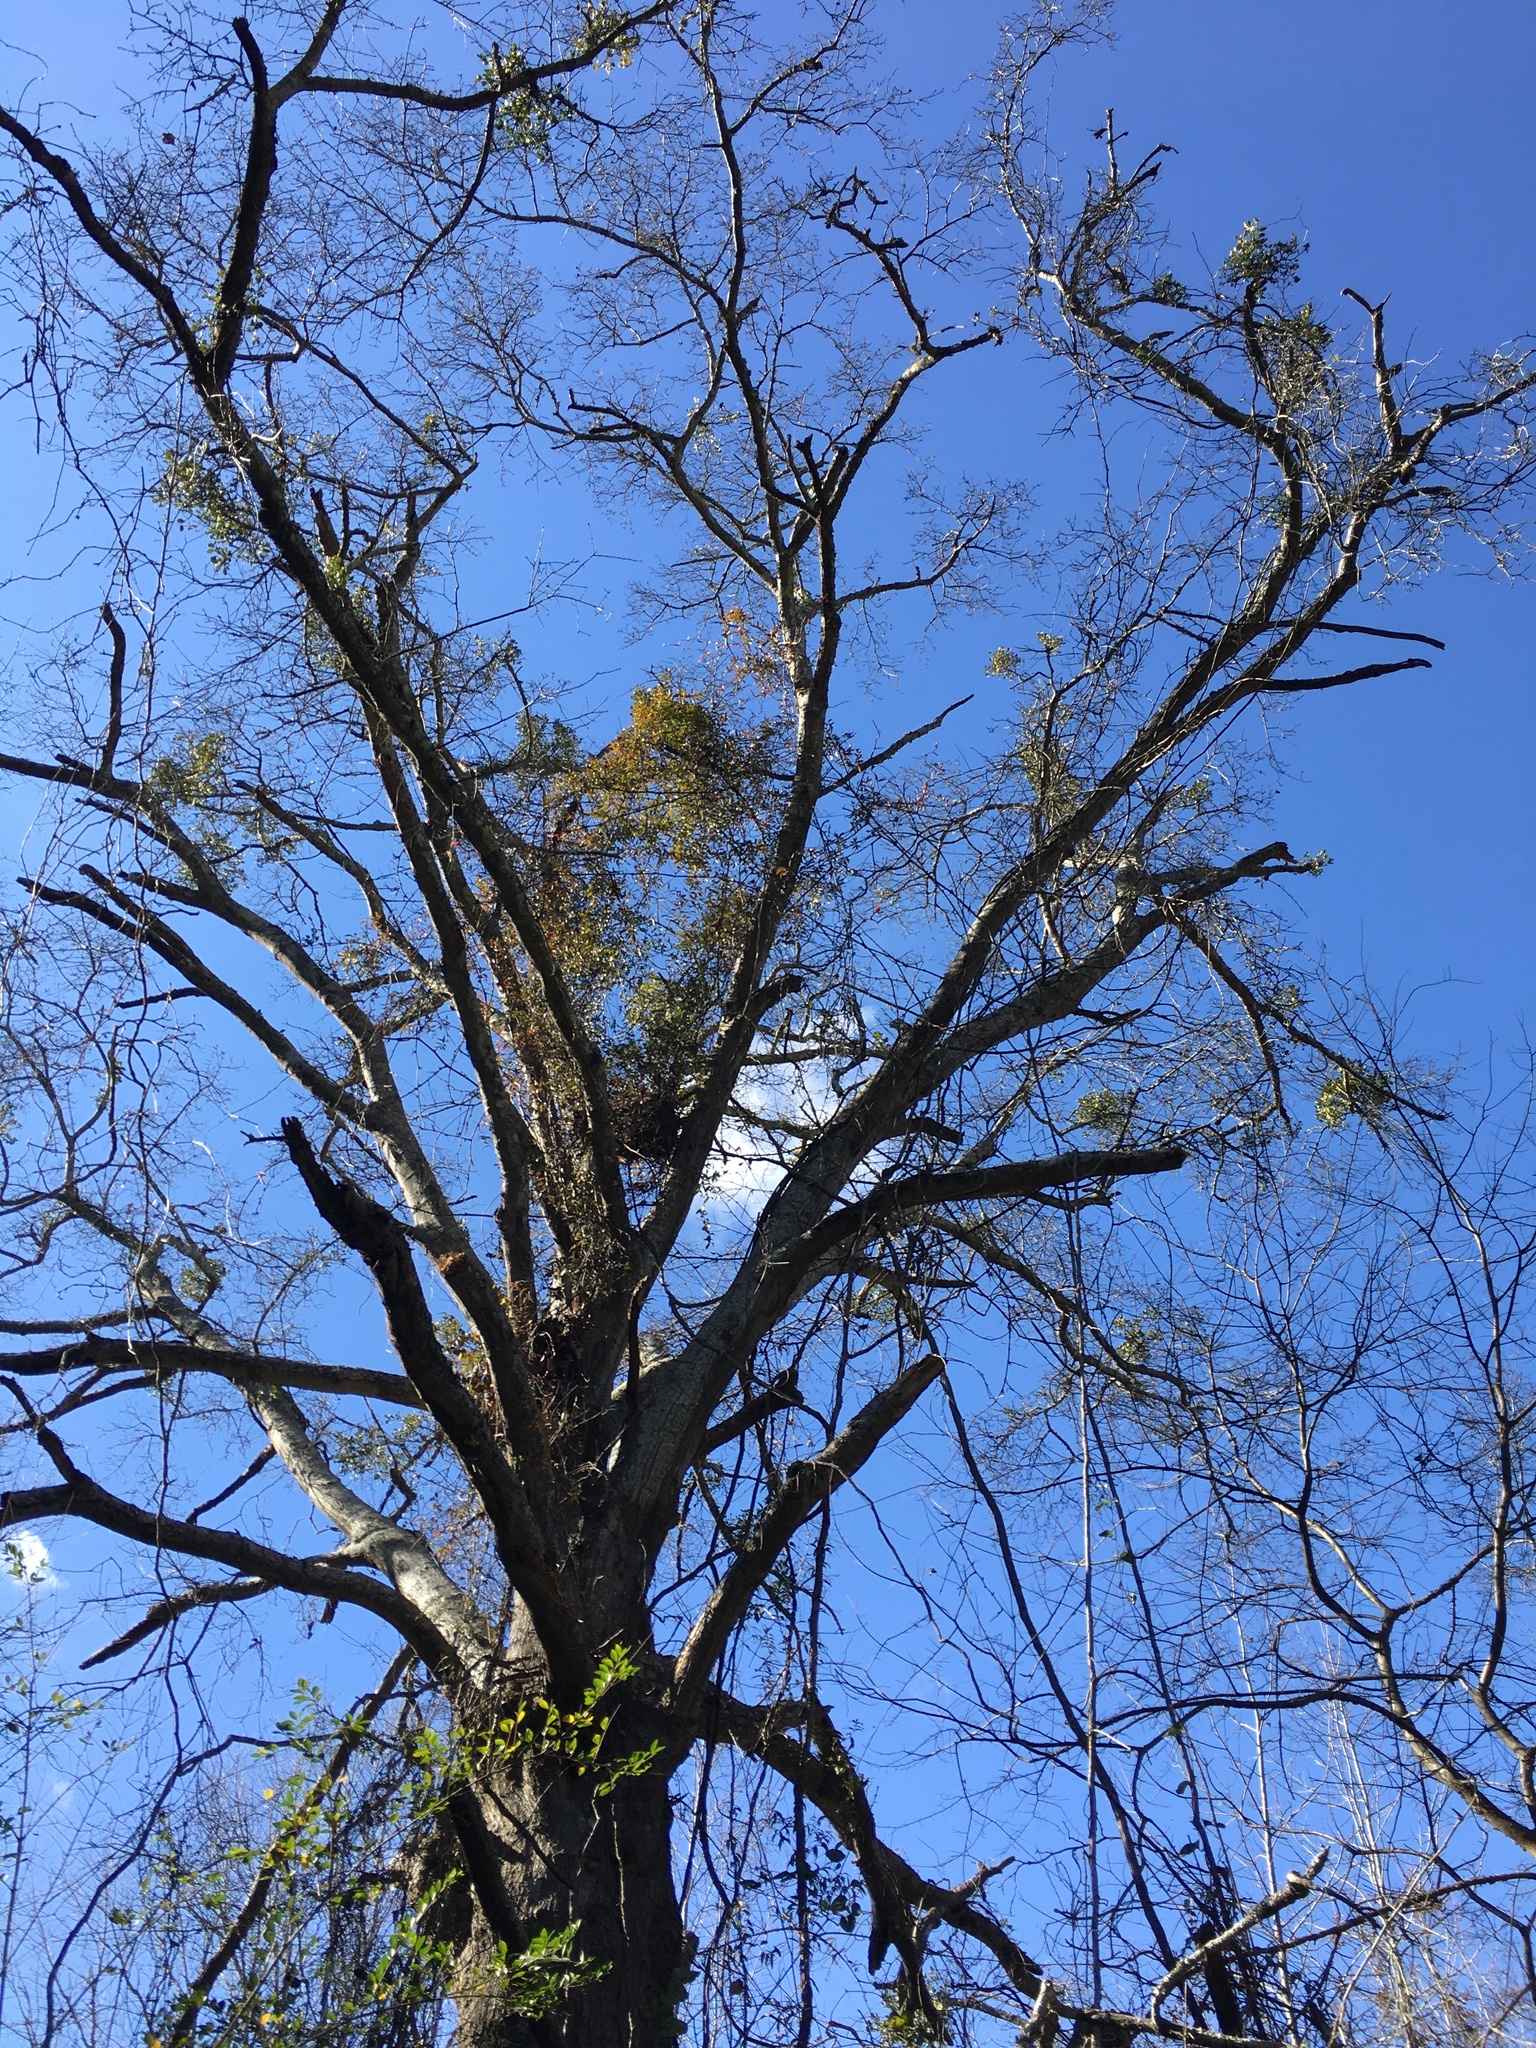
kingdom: Plantae
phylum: Tracheophyta
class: Magnoliopsida
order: Gentianales
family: Gelsemiaceae
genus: Gelsemium
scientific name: Gelsemium sempervirens
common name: Carolina-jasmine
